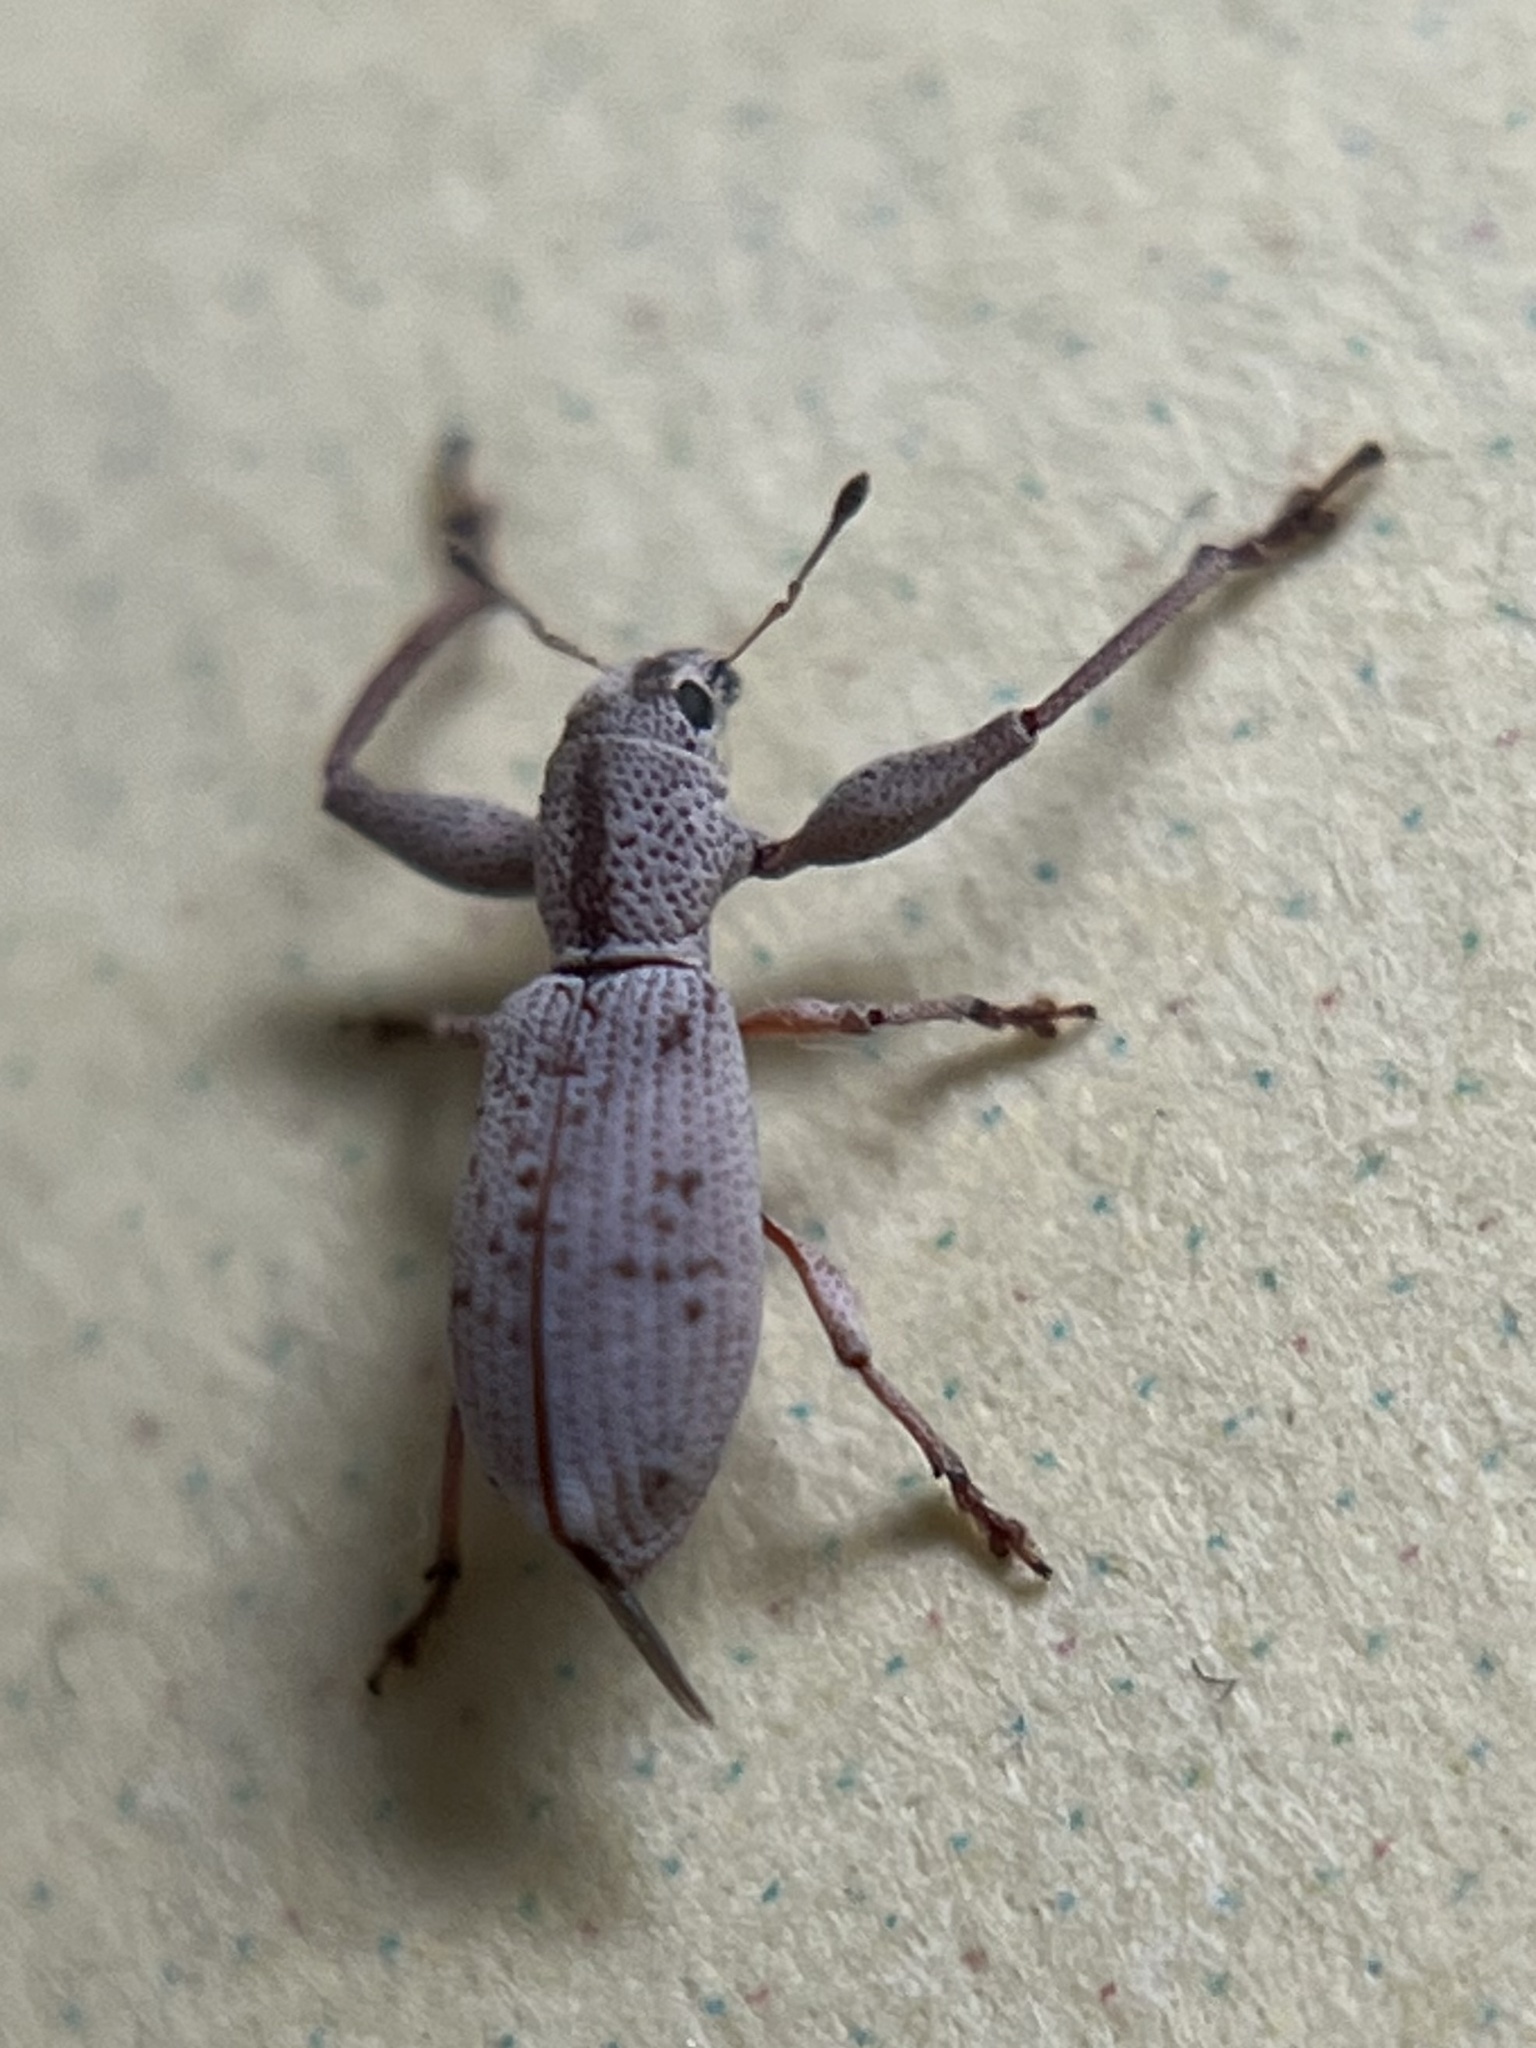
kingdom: Animalia
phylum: Arthropoda
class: Insecta
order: Coleoptera
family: Curculionidae
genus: Pandeleteius
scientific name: Pandeleteius nodifer
